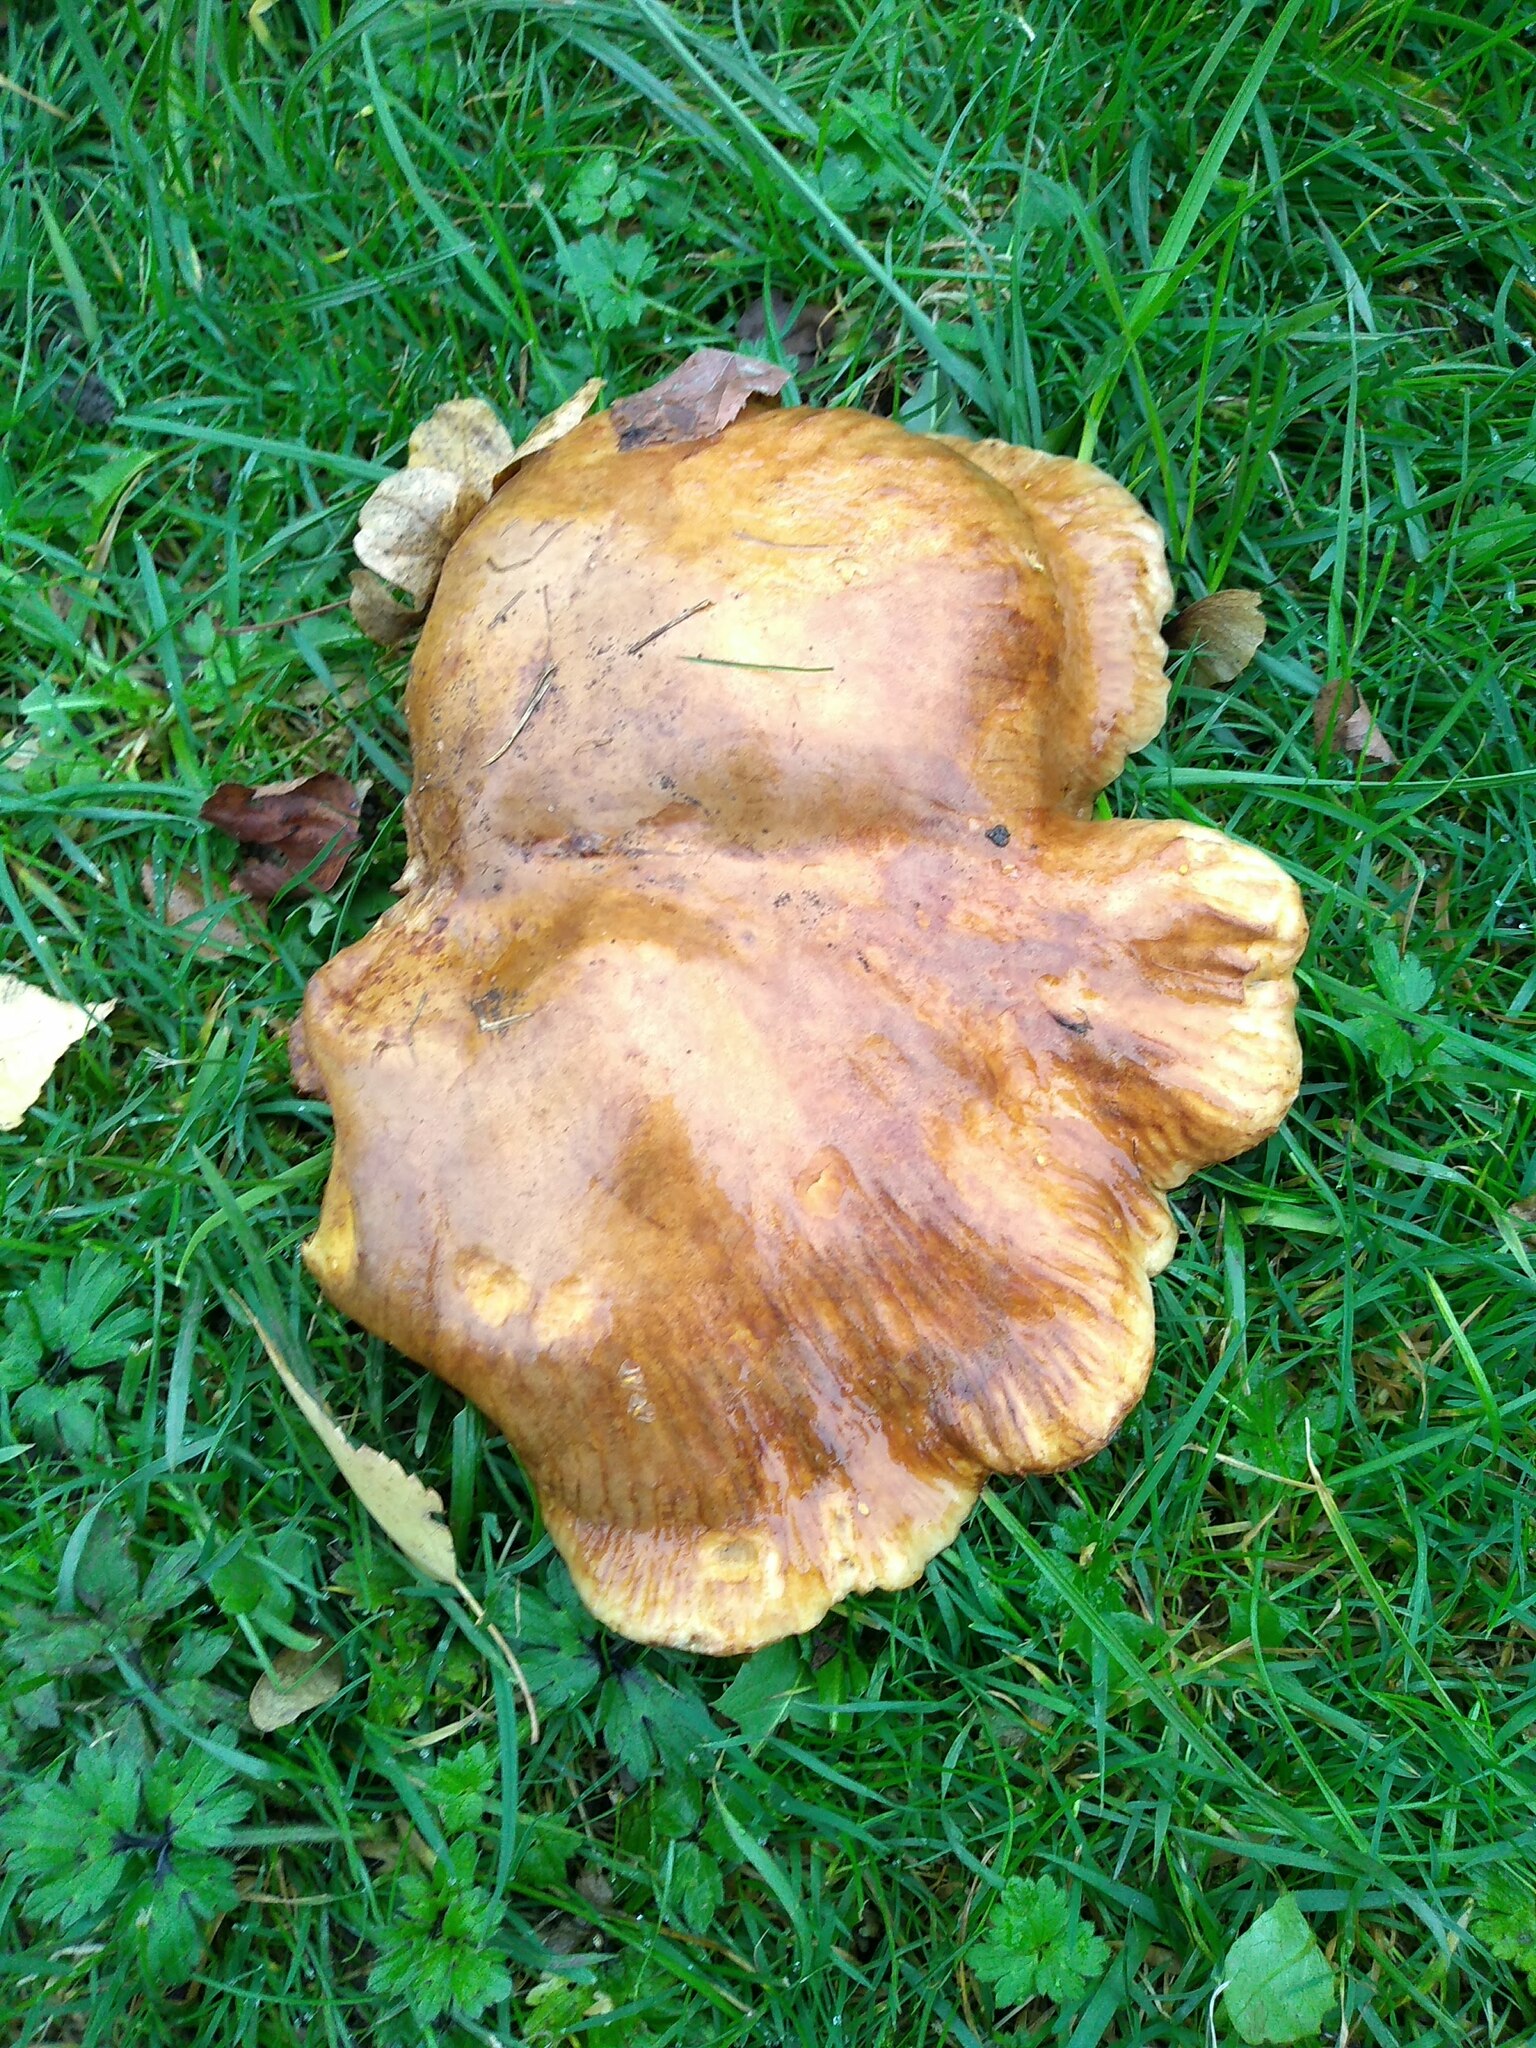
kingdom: Fungi
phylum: Basidiomycota
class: Agaricomycetes
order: Boletales
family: Paxillaceae
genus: Paxillus
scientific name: Paxillus involutus
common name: Brown roll rim
